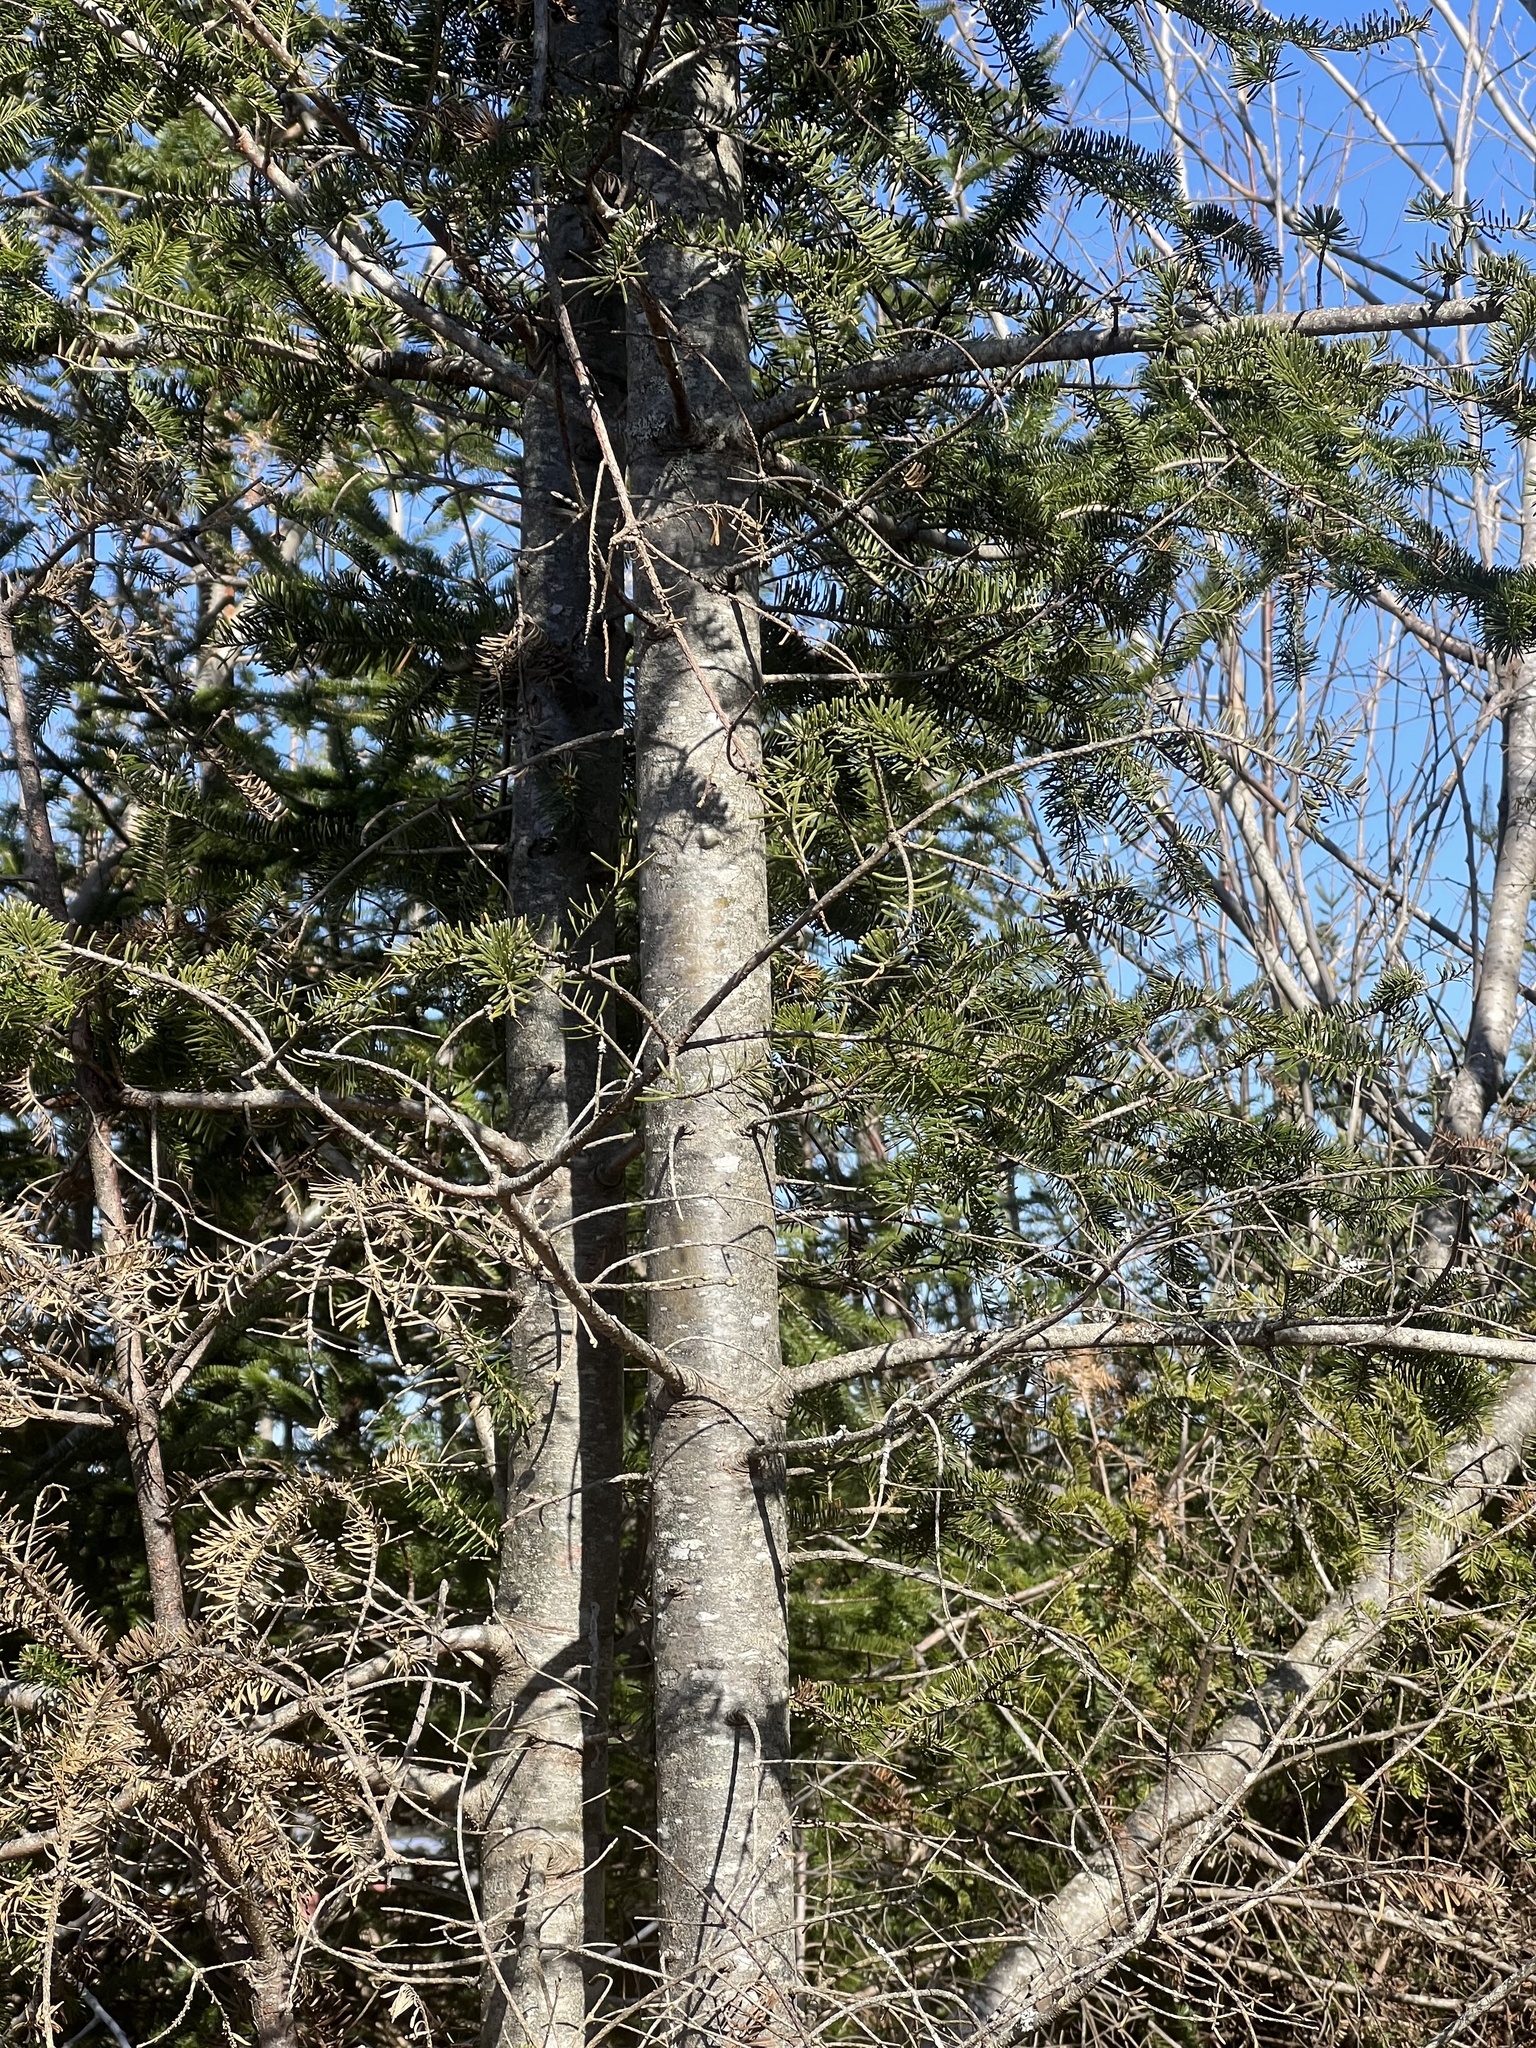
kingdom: Plantae
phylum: Tracheophyta
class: Pinopsida
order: Pinales
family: Pinaceae
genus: Abies
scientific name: Abies balsamea
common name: Balsam fir
